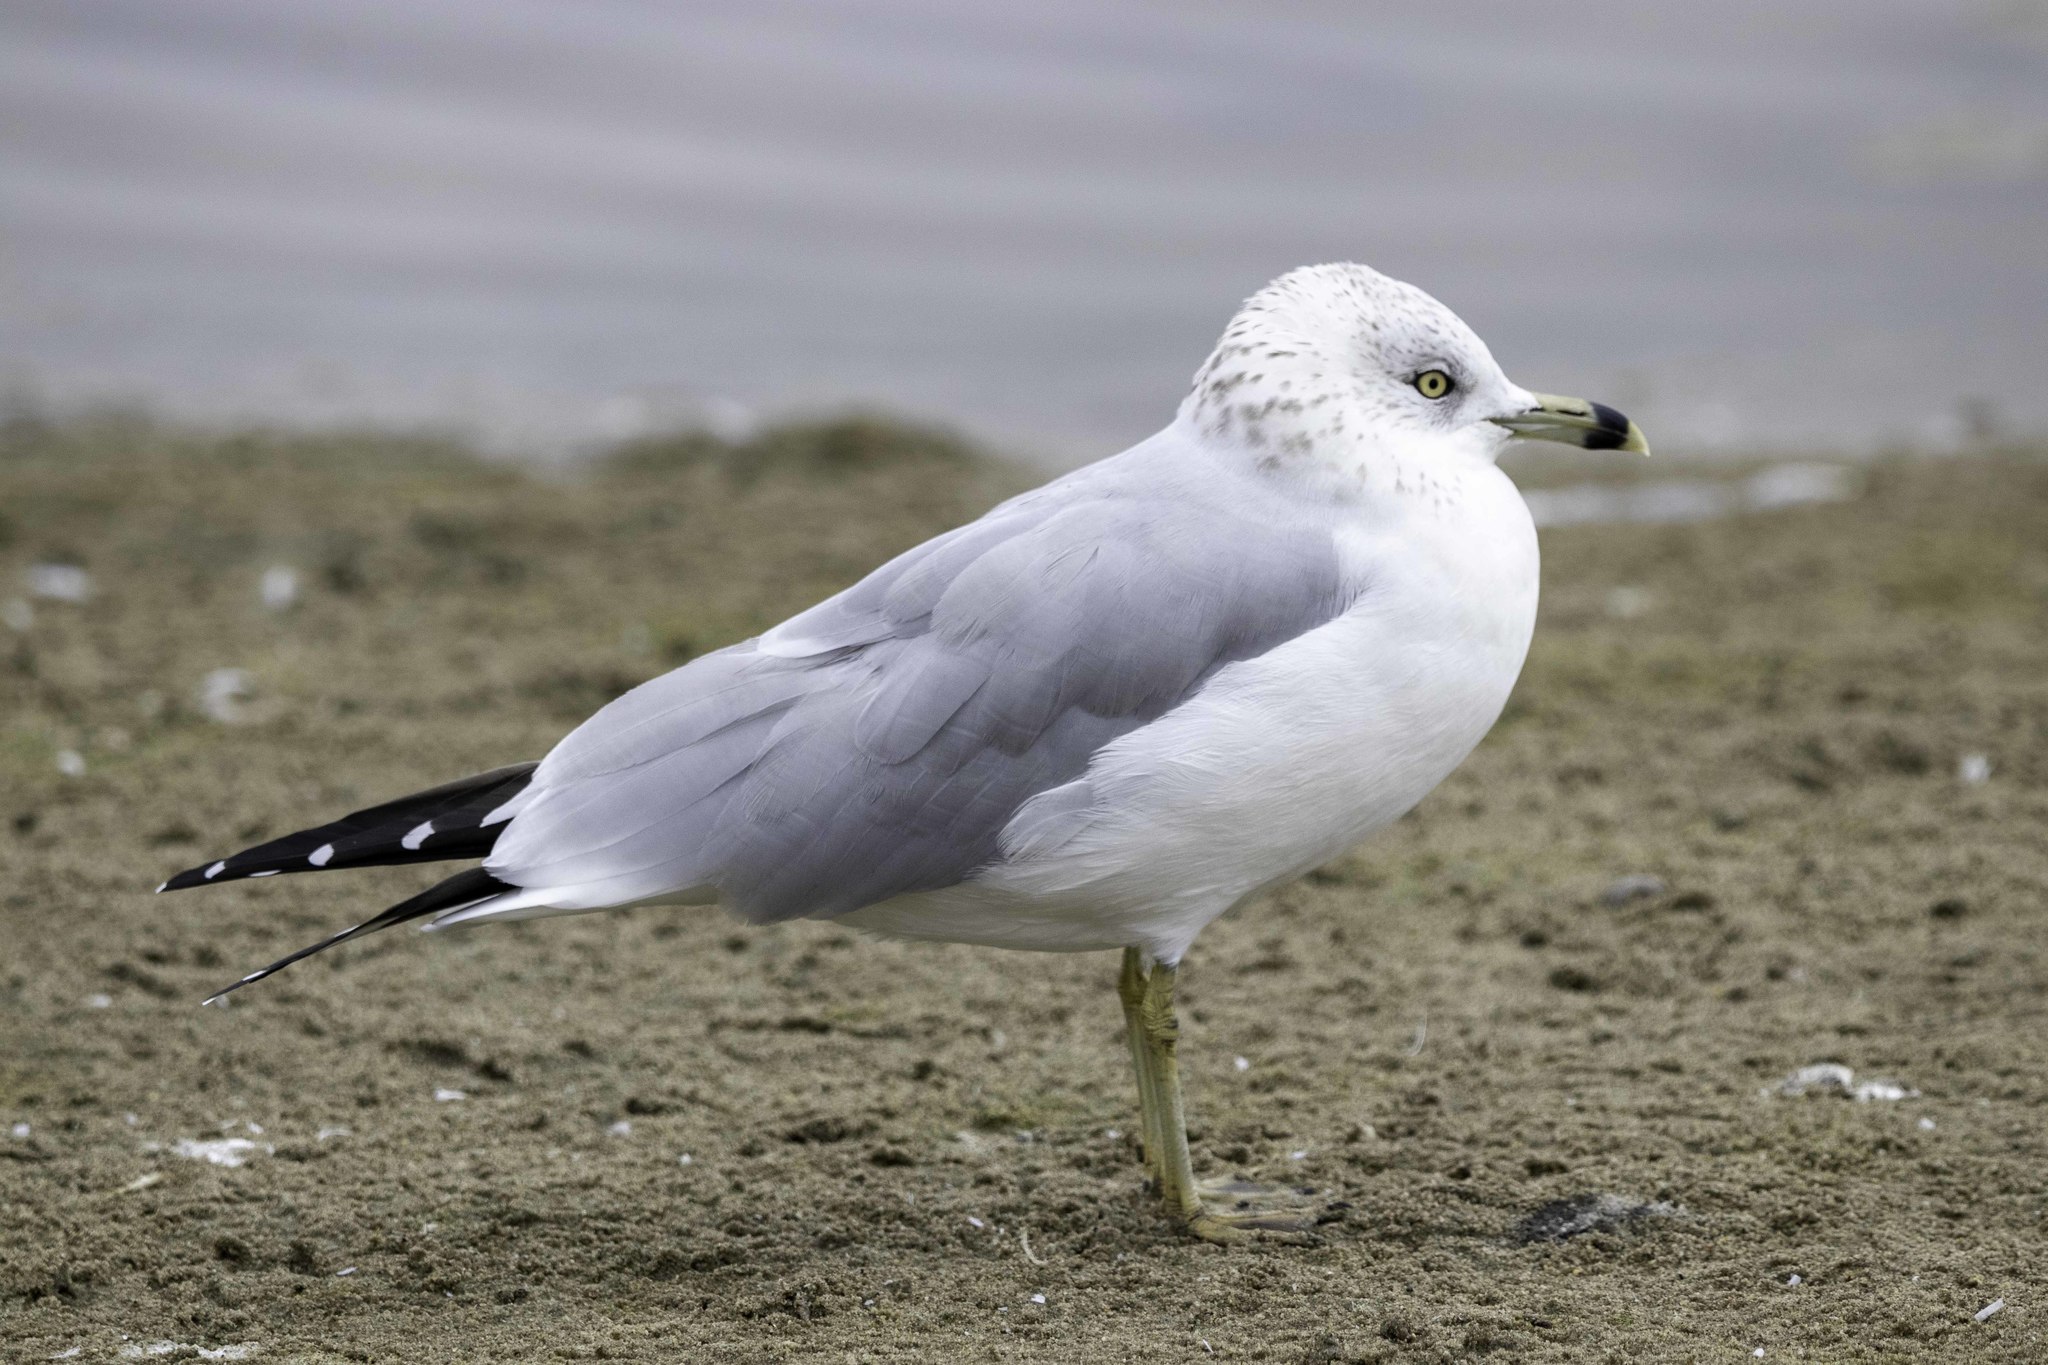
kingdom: Animalia
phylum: Chordata
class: Aves
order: Charadriiformes
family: Laridae
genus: Larus
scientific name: Larus delawarensis
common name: Ring-billed gull
